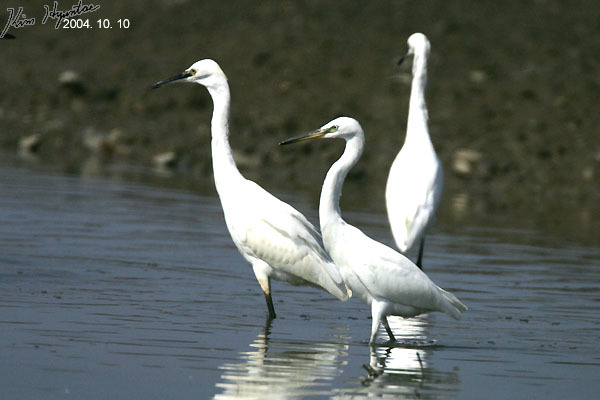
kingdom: Animalia
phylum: Chordata
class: Aves
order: Pelecaniformes
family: Ardeidae
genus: Egretta
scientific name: Egretta eulophotes
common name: Chinese egret
